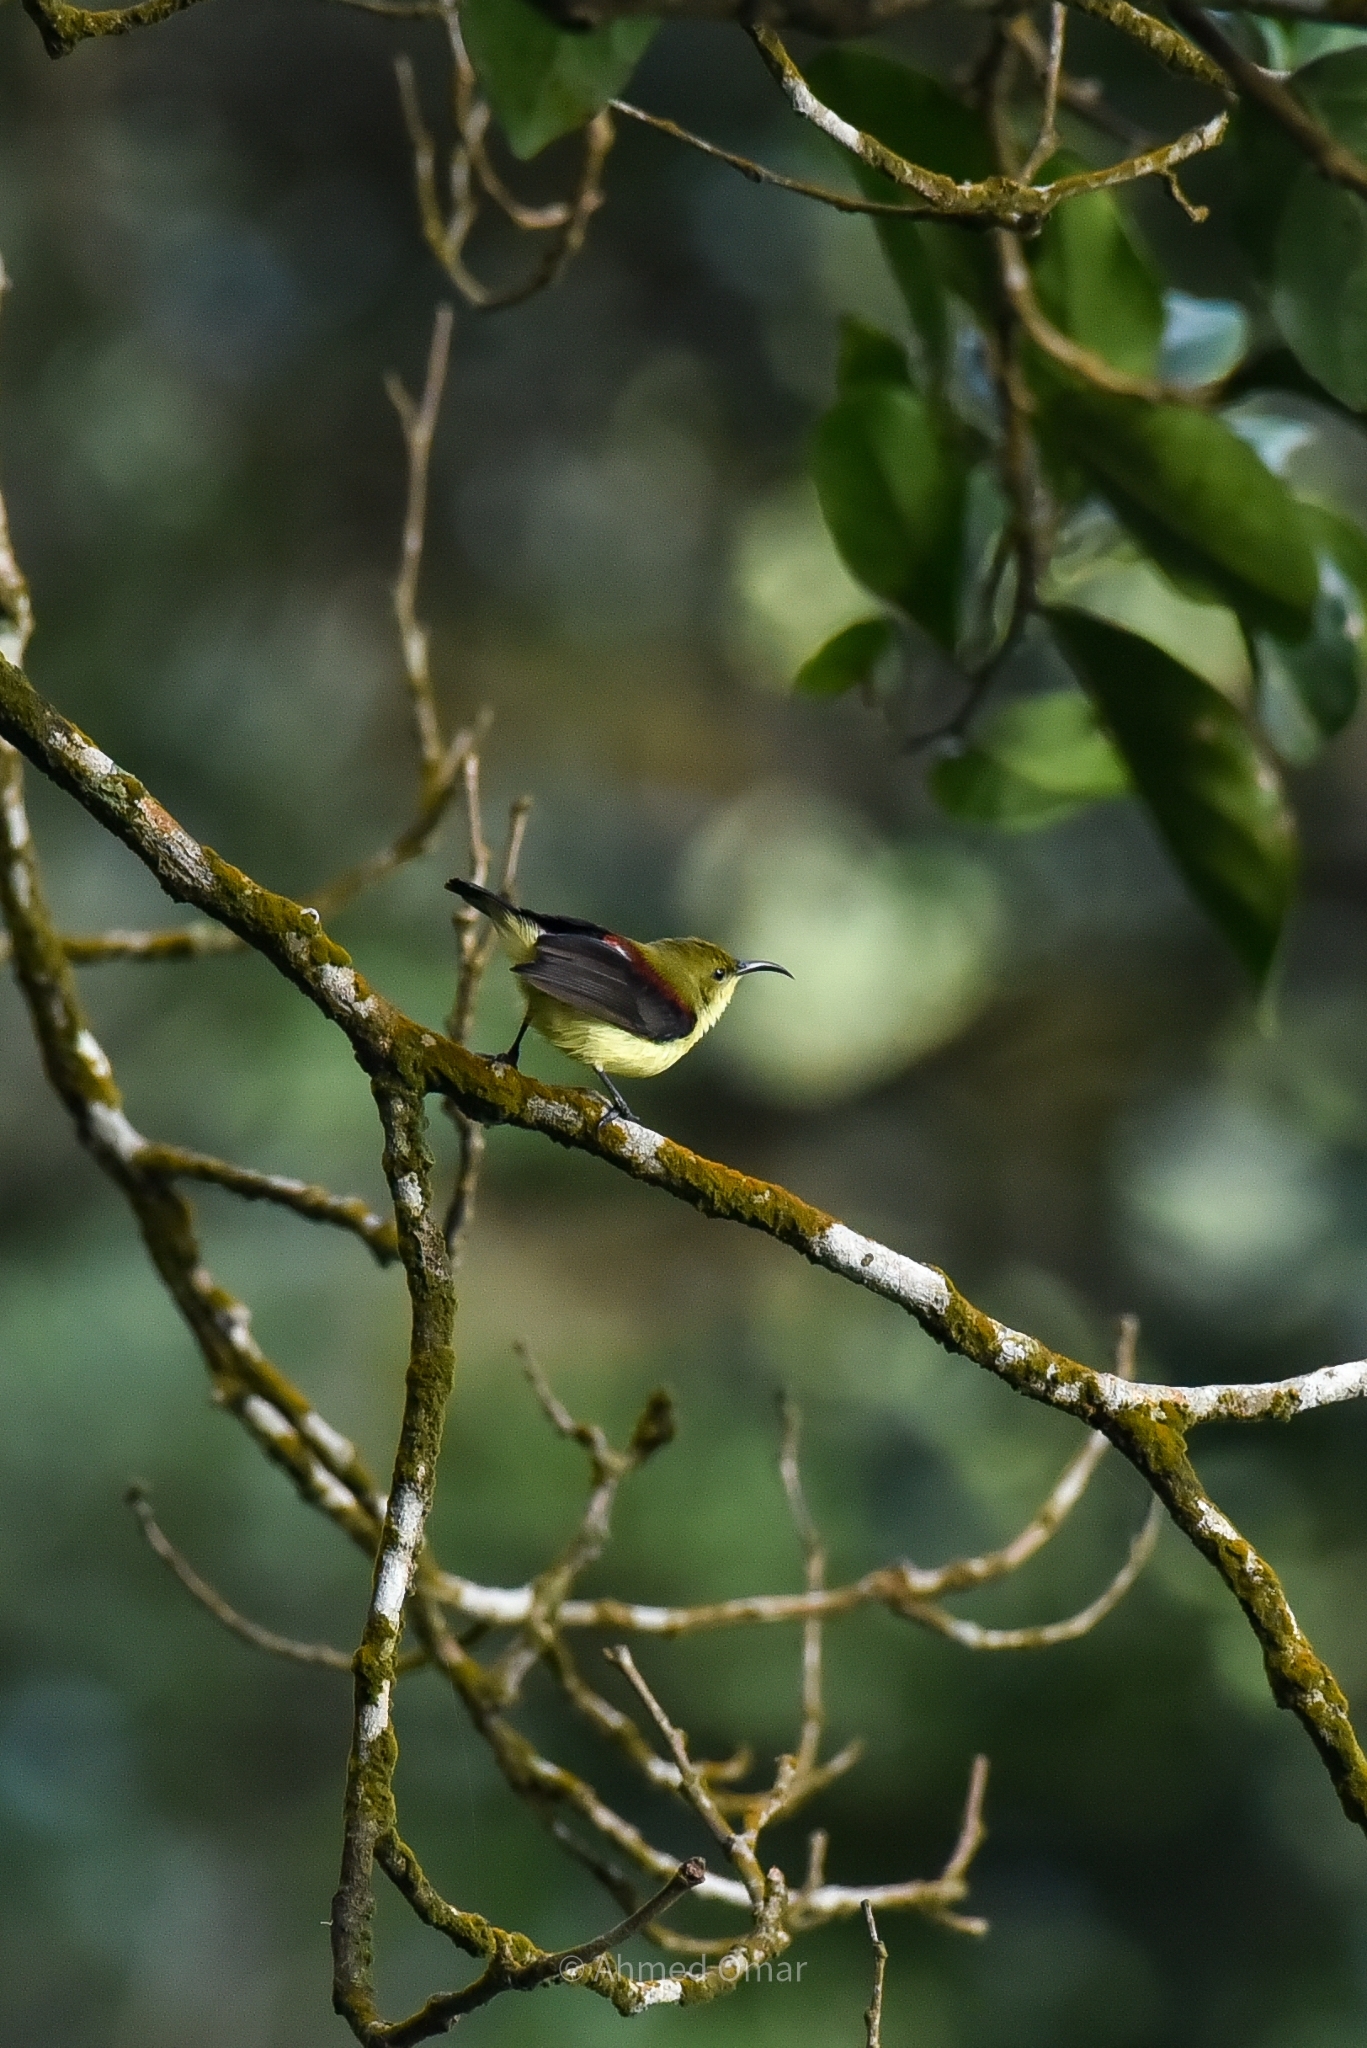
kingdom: Animalia
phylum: Chordata
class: Aves
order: Passeriformes
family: Nectariniidae
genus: Leptocoma
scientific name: Leptocoma minima
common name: Crimson-backed sunbird
